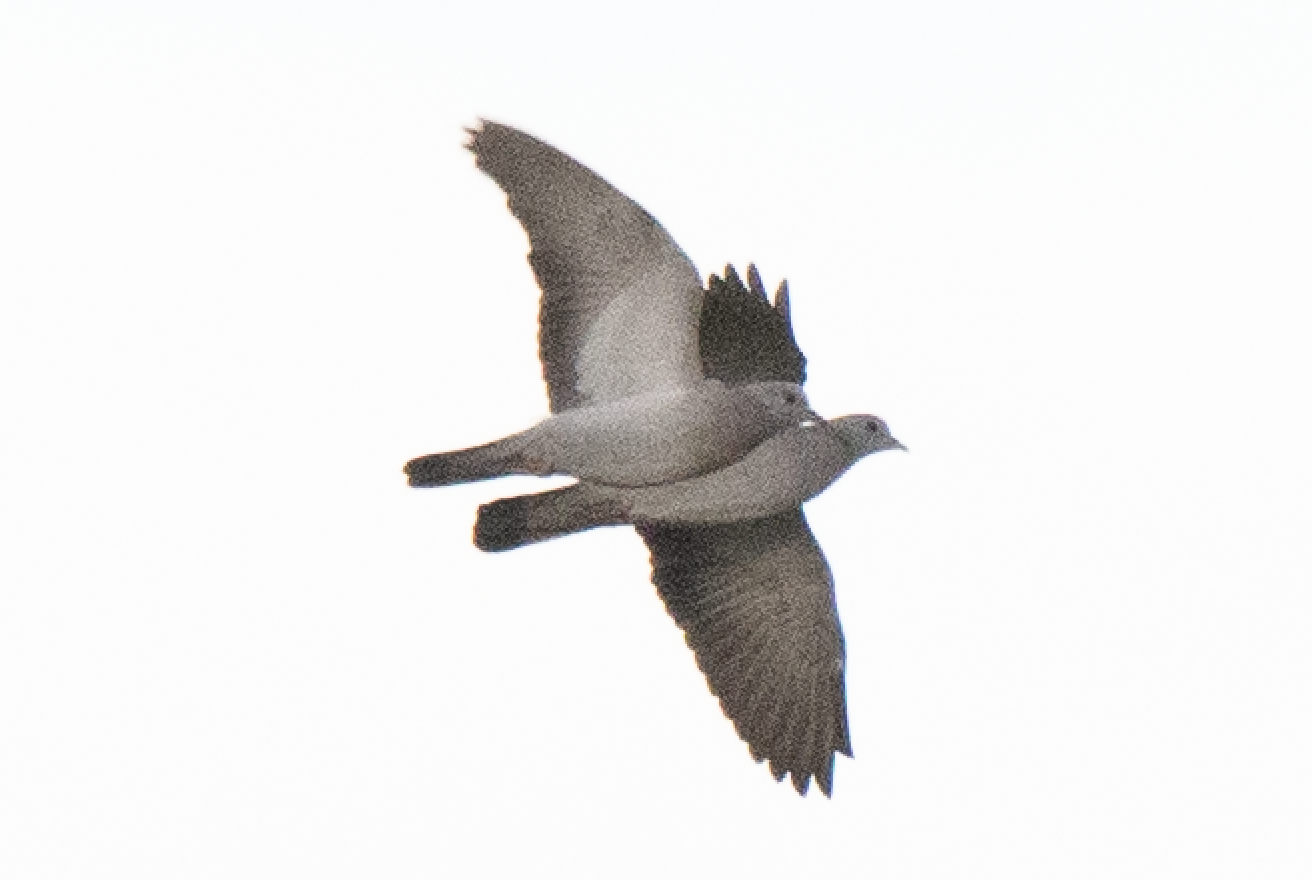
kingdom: Animalia
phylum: Chordata
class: Aves
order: Columbiformes
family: Columbidae
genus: Columba
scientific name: Columba oenas
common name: Stock dove
